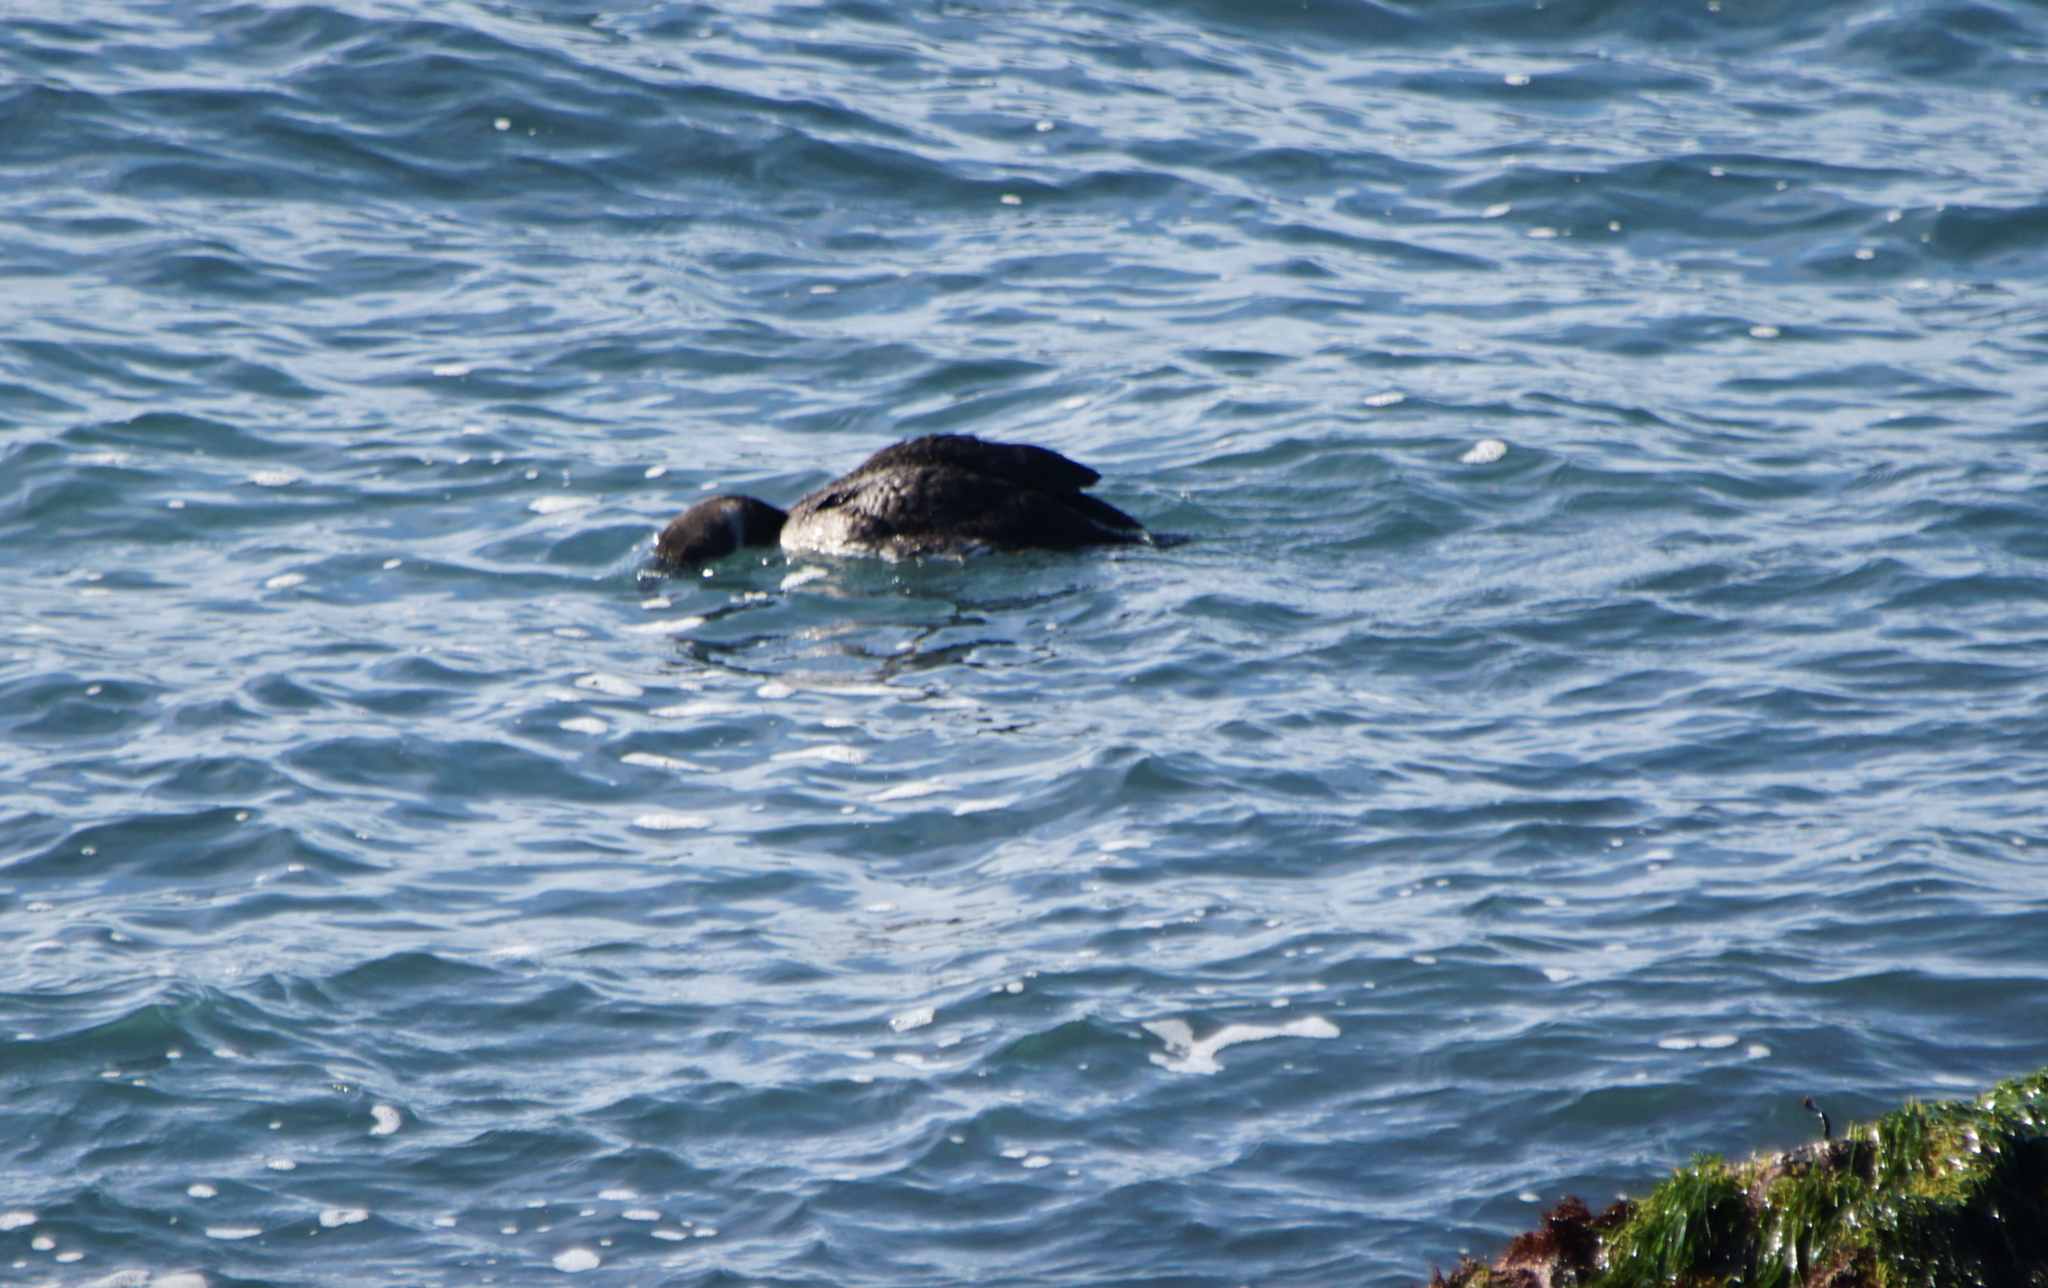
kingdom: Animalia
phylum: Chordata
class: Aves
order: Gaviiformes
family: Gaviidae
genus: Gavia
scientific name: Gavia immer
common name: Common loon
